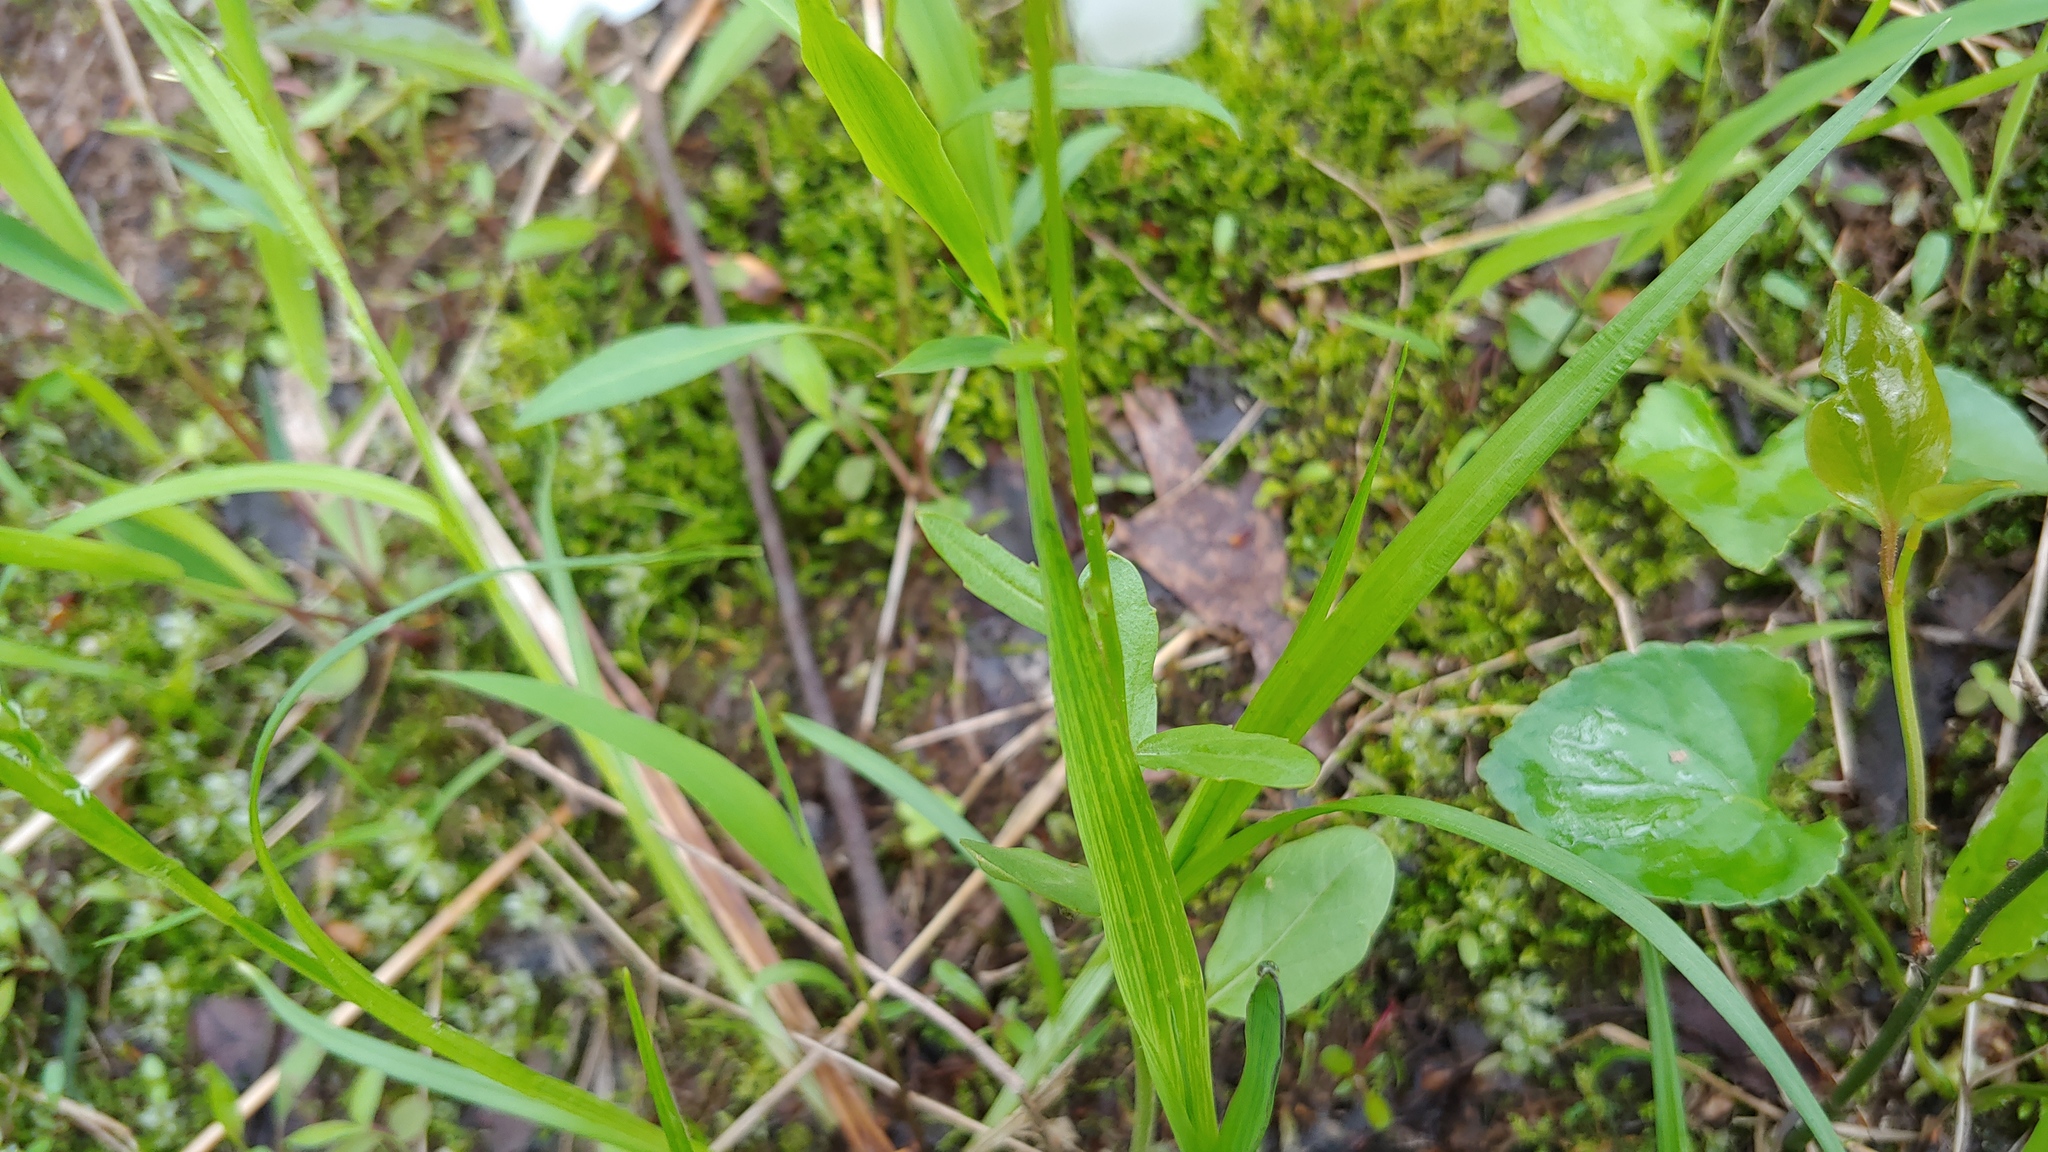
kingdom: Plantae
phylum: Tracheophyta
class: Magnoliopsida
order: Brassicales
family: Brassicaceae
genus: Cardamine
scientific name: Cardamine bulbosa
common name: Spring cress
